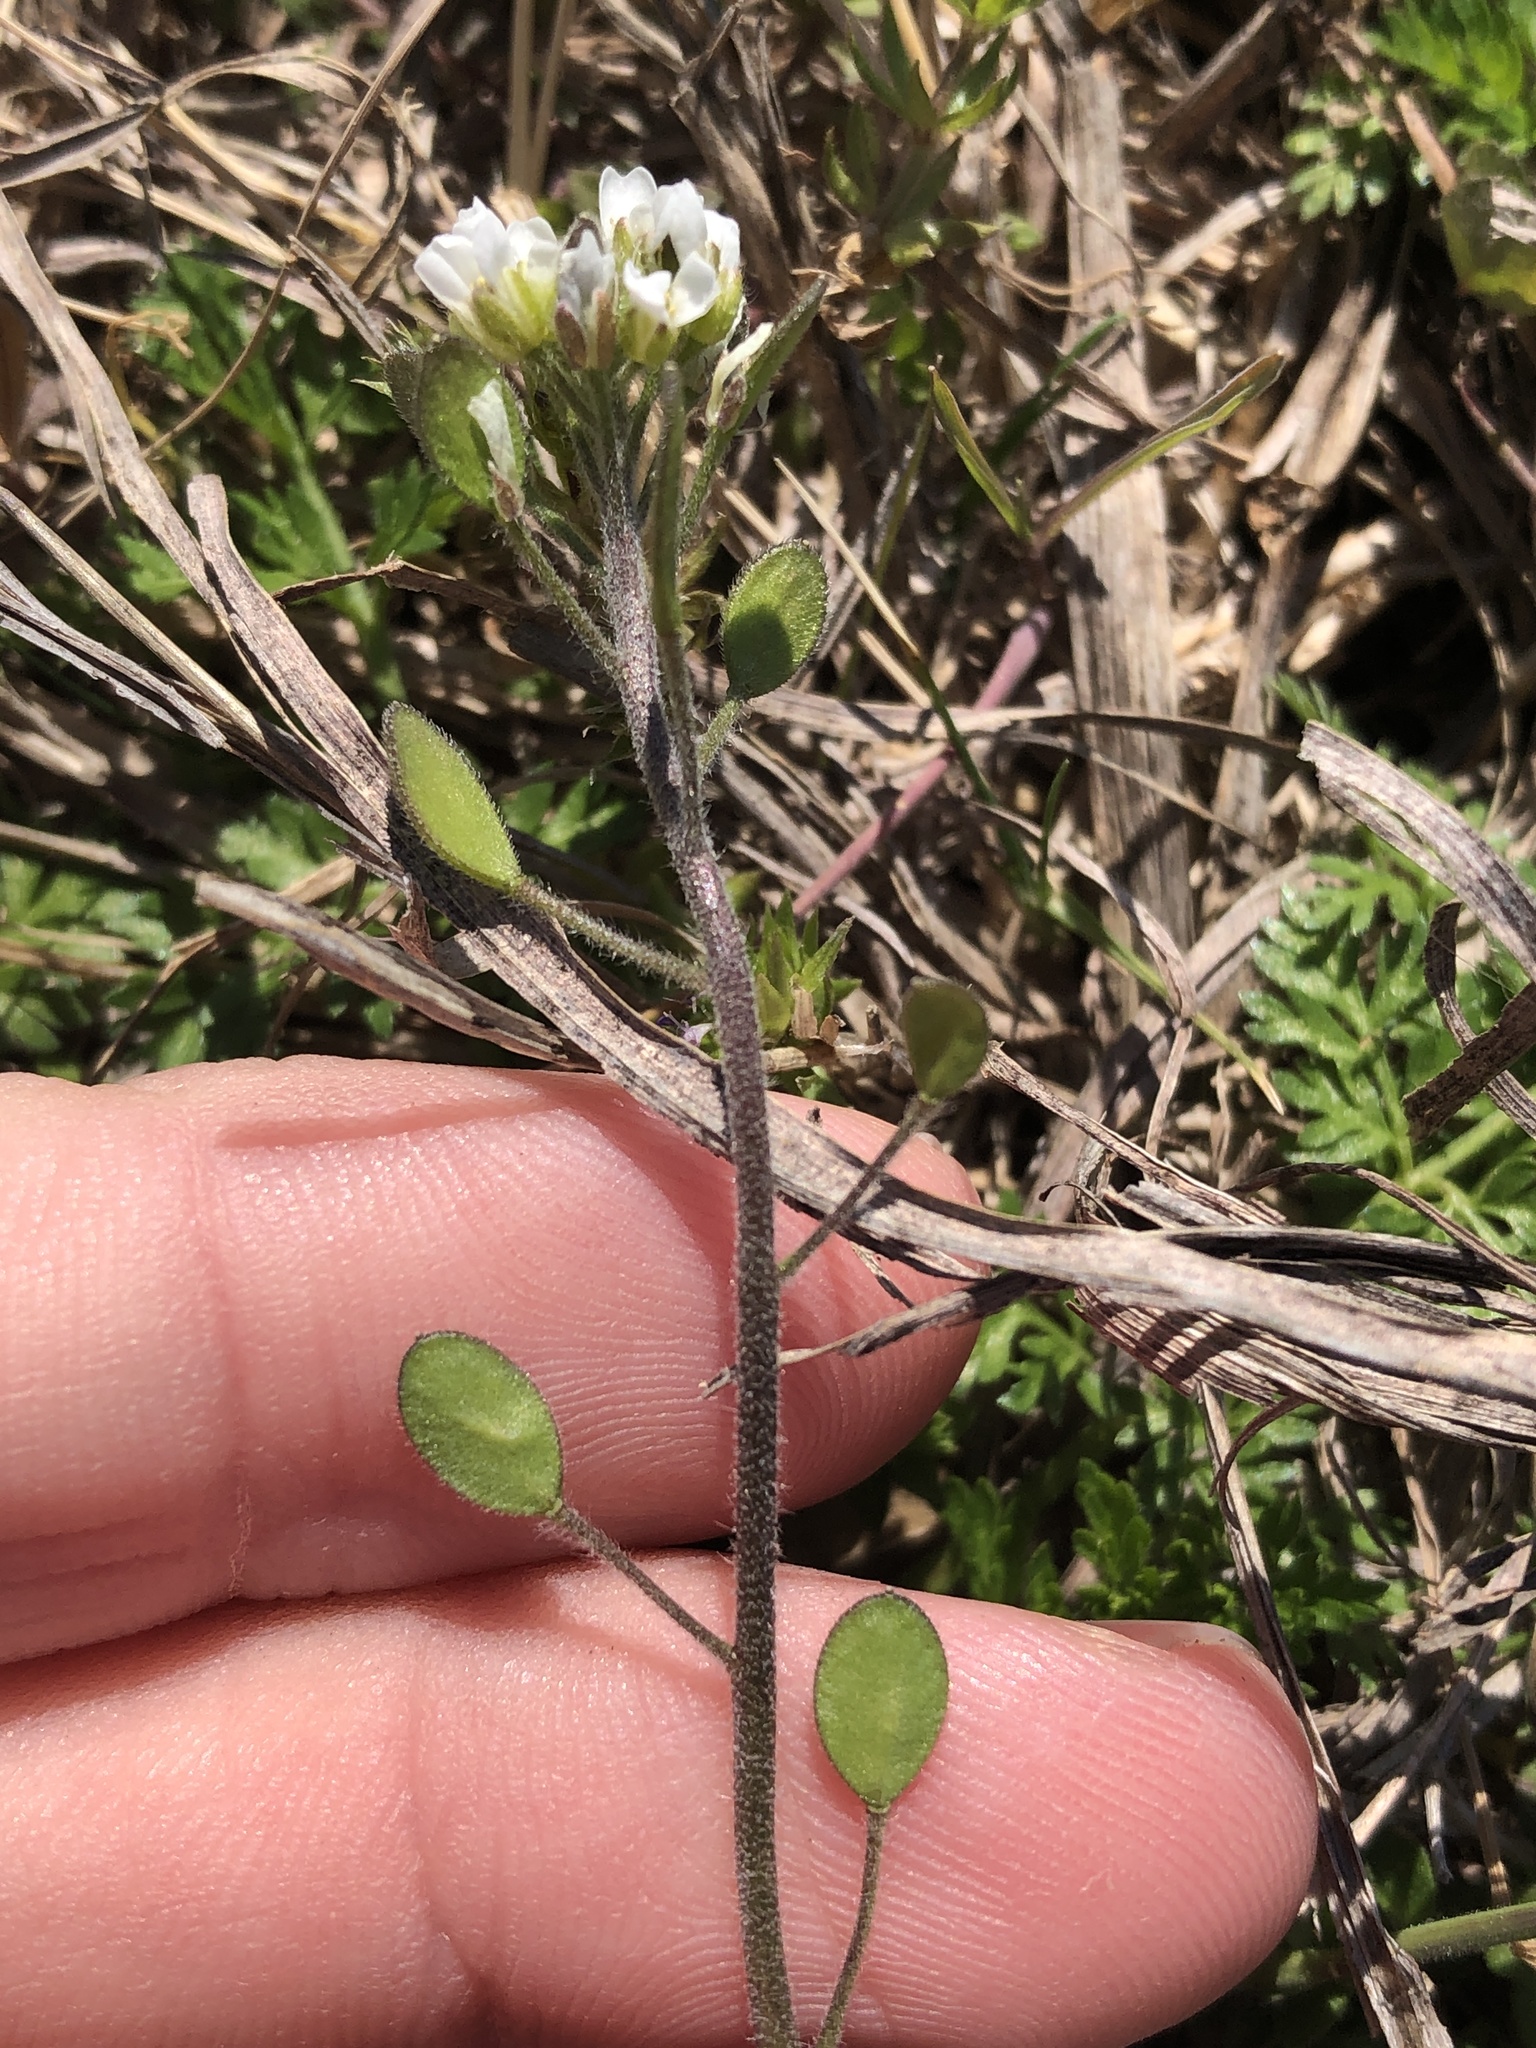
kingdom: Plantae
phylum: Tracheophyta
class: Magnoliopsida
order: Brassicales
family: Brassicaceae
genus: Tomostima
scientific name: Tomostima platycarpa
